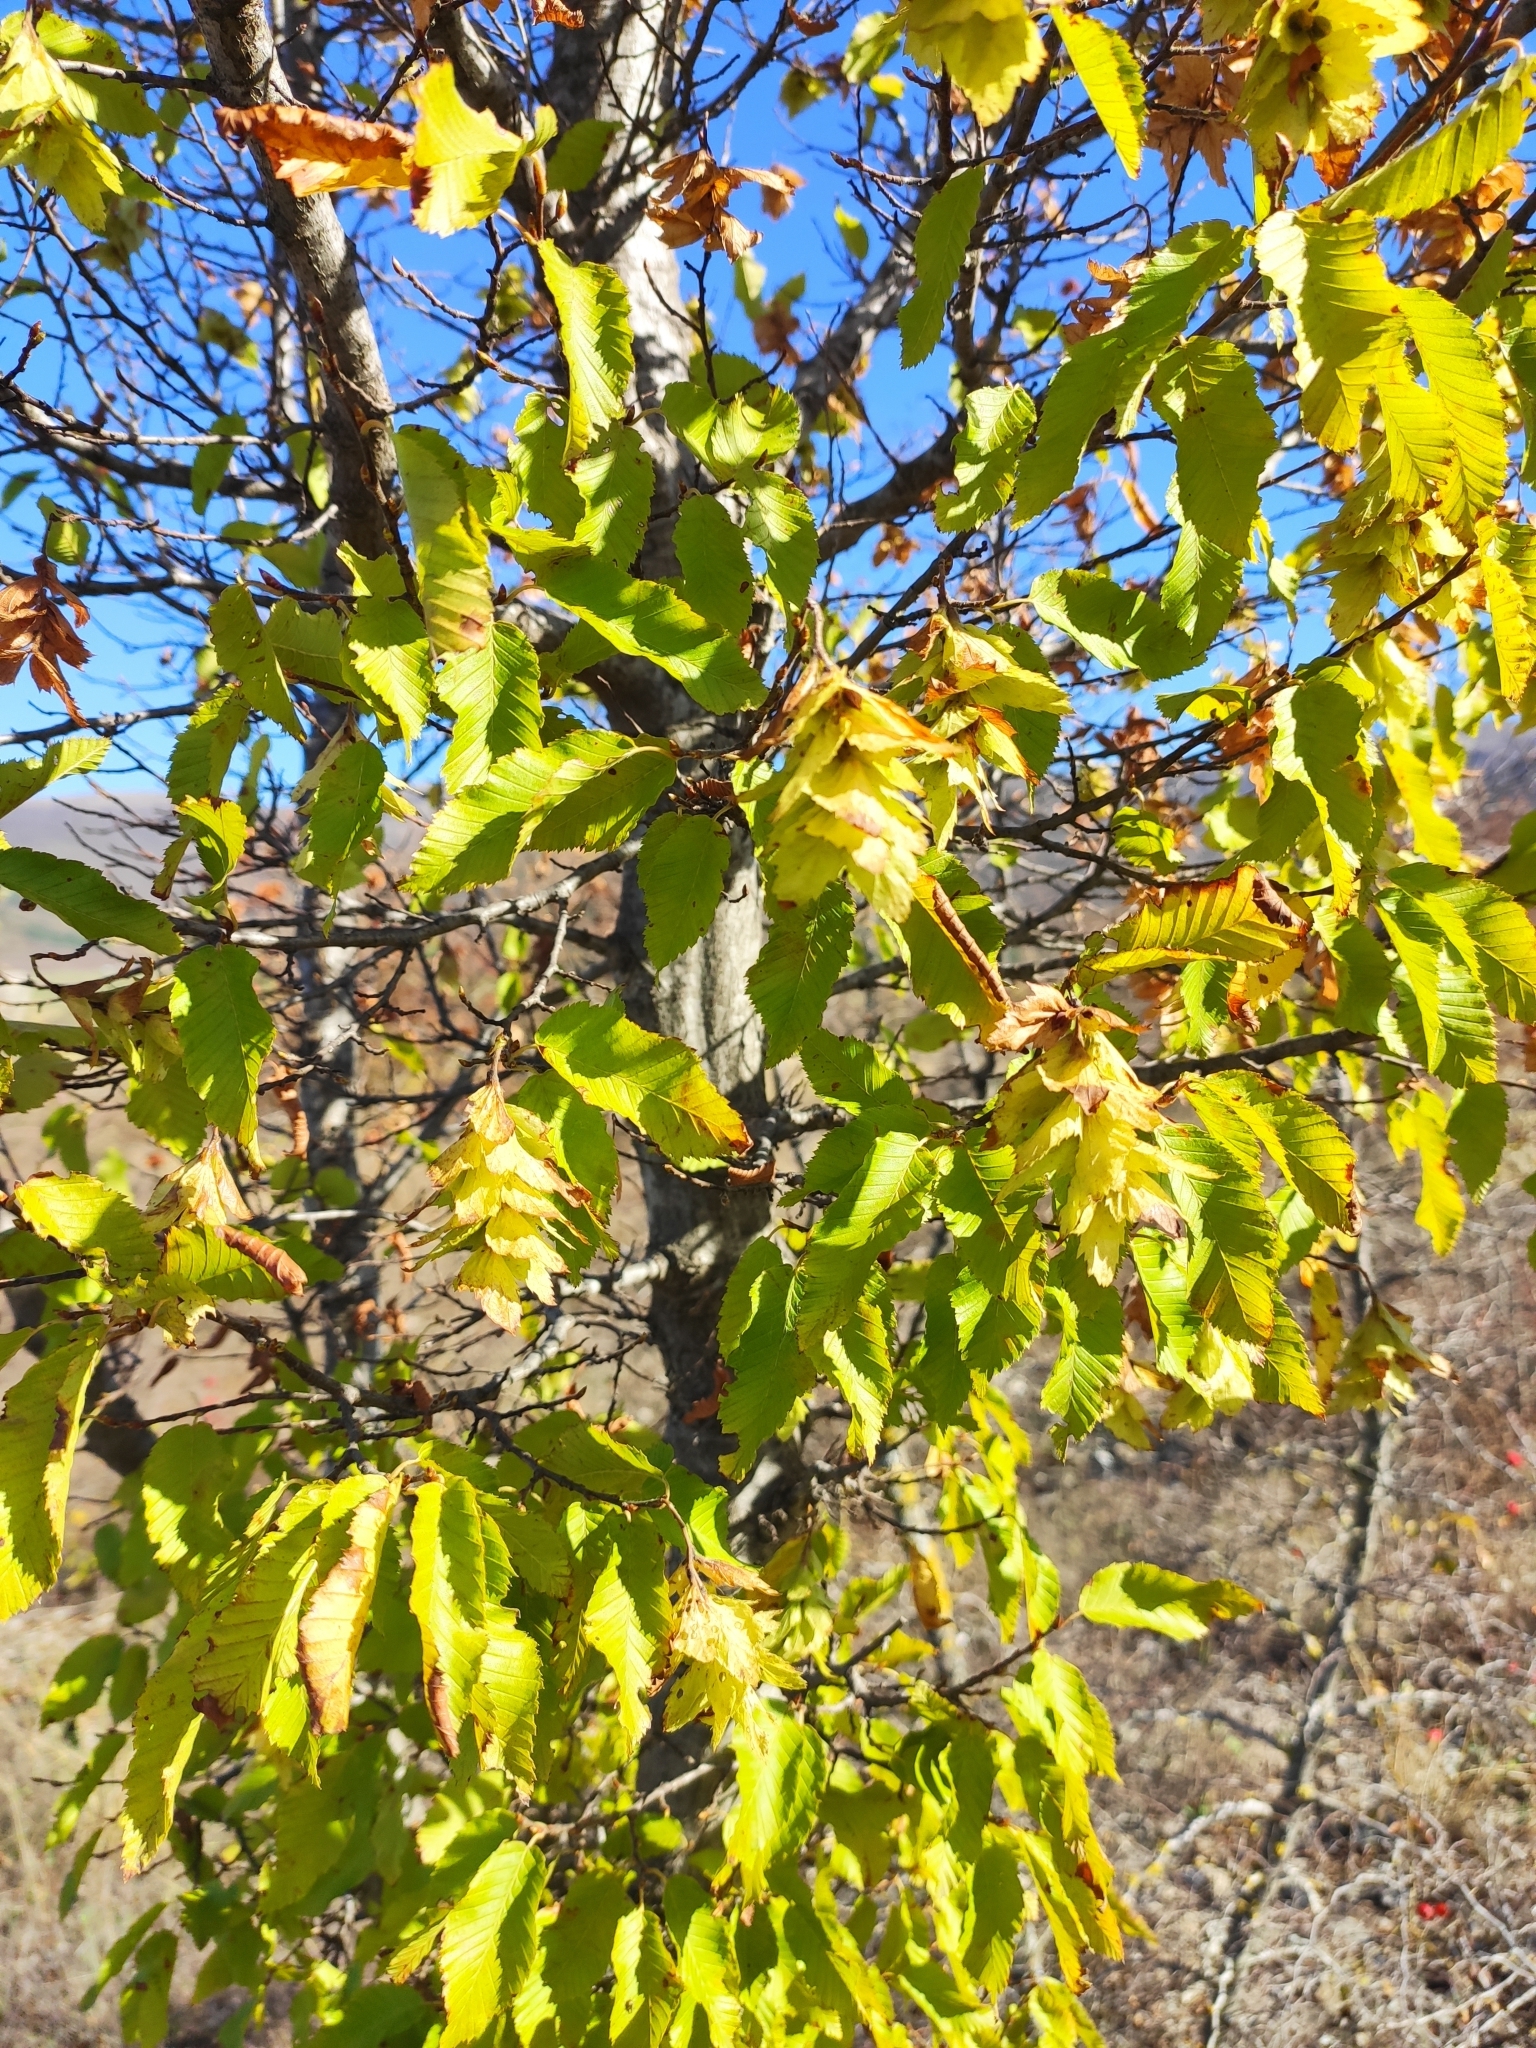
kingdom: Plantae
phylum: Tracheophyta
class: Magnoliopsida
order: Fagales
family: Betulaceae
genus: Carpinus
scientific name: Carpinus orientalis
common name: Eastern hornbeam
